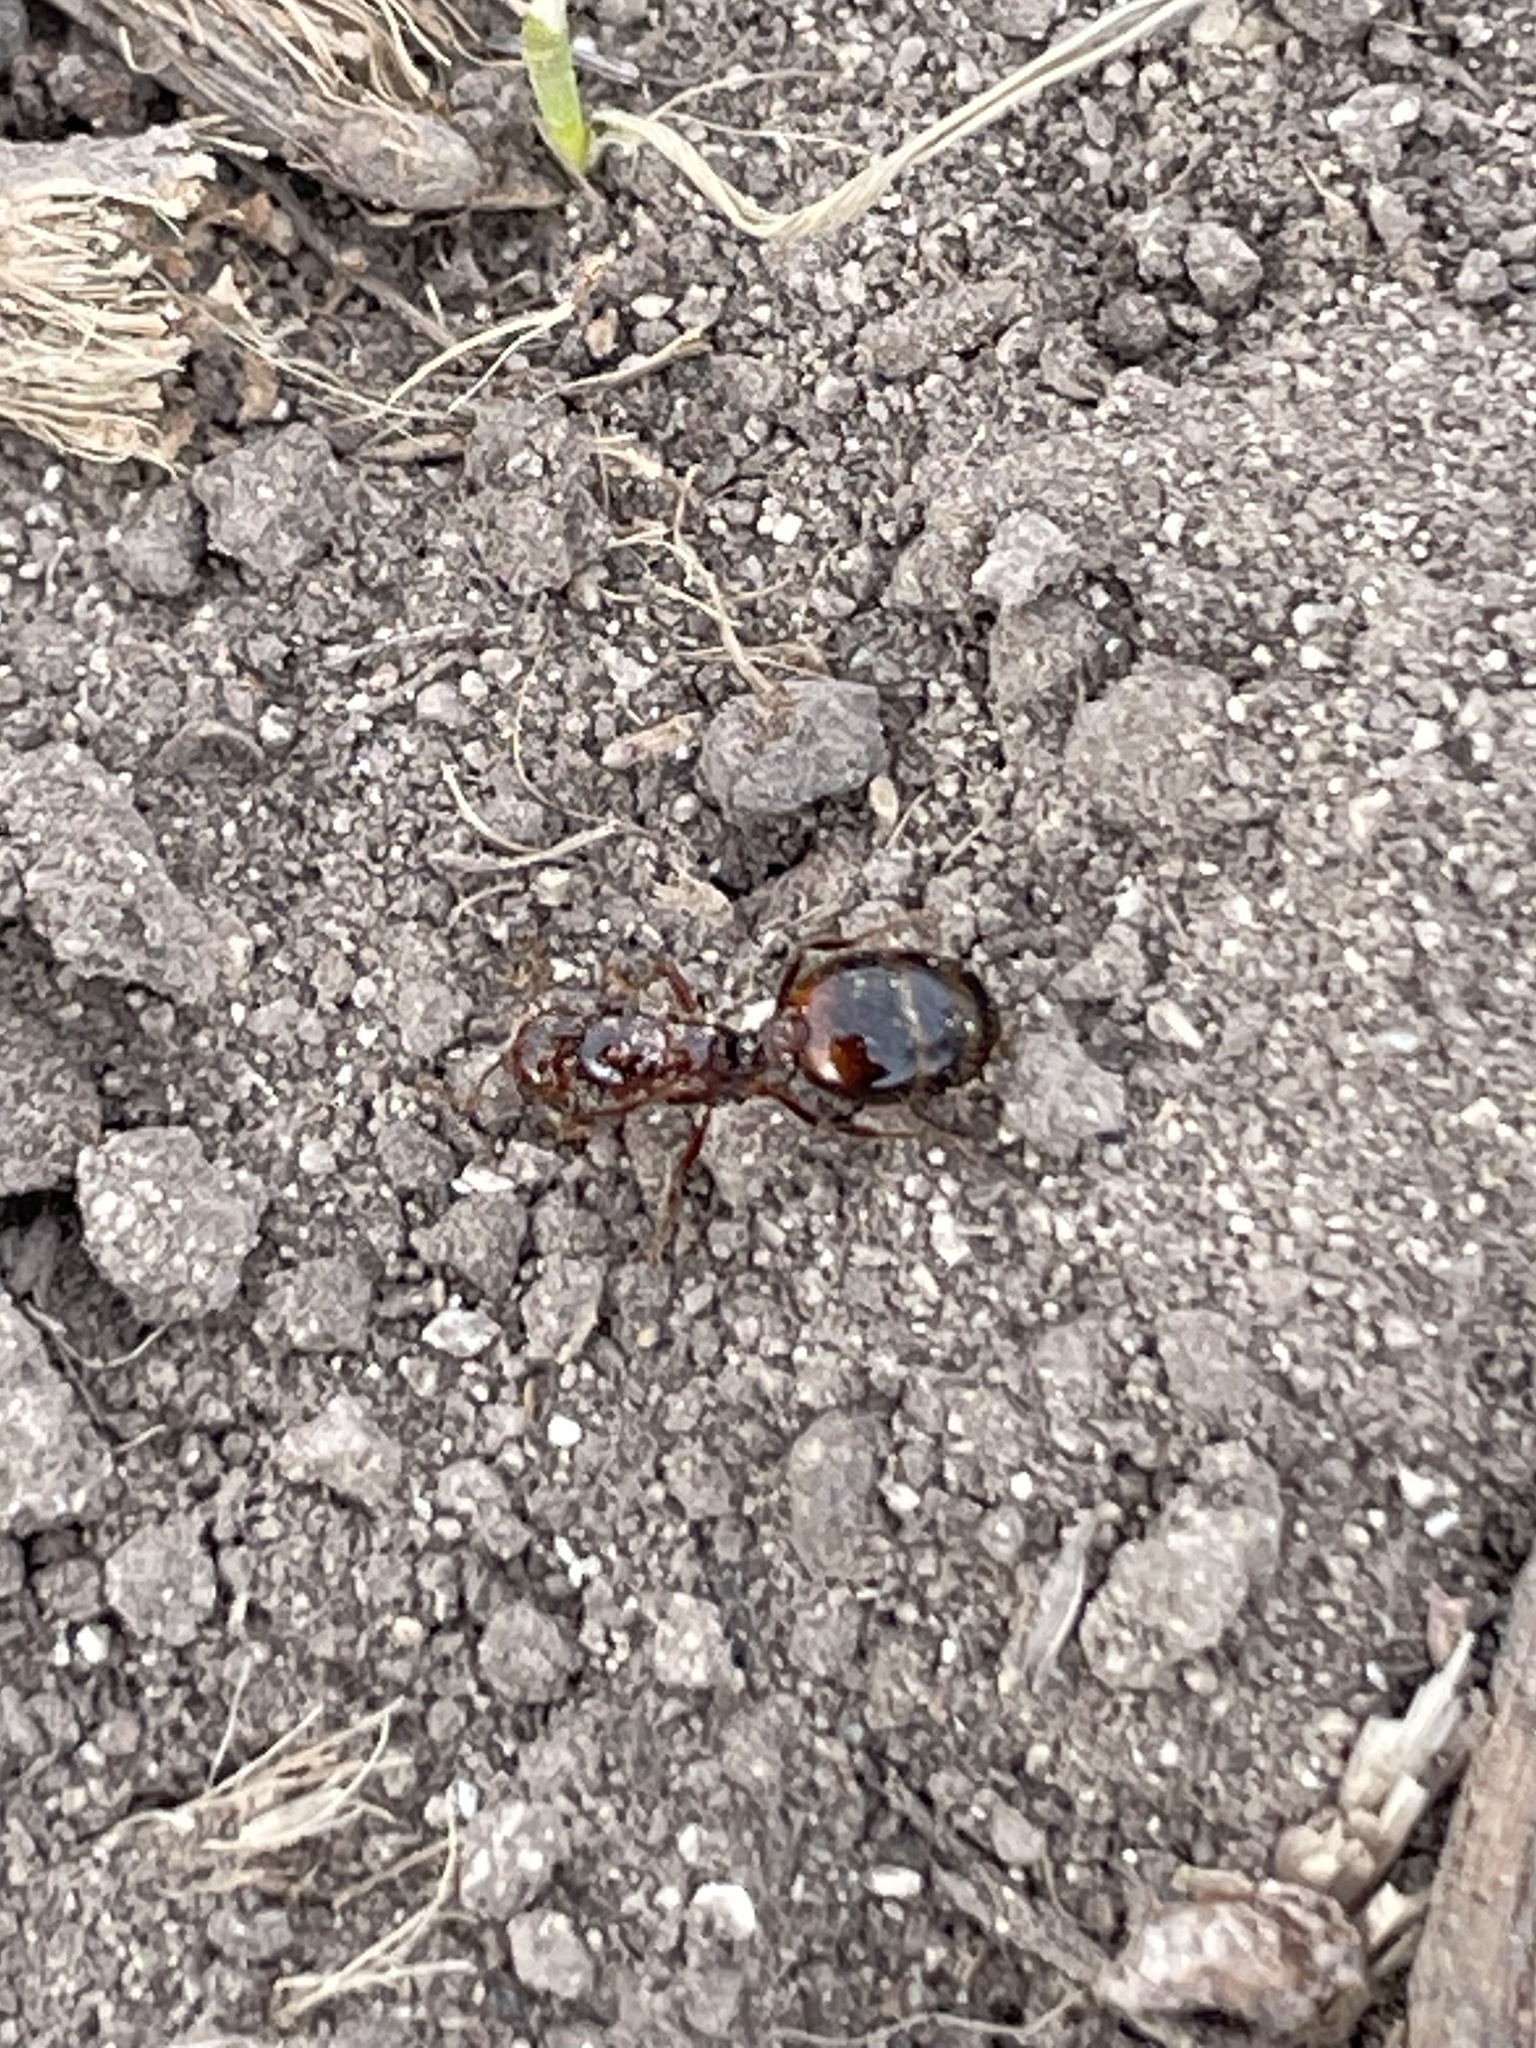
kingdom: Animalia
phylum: Arthropoda
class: Insecta
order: Hymenoptera
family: Formicidae
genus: Solenopsis
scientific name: Solenopsis invicta
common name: Red imported fire ant
